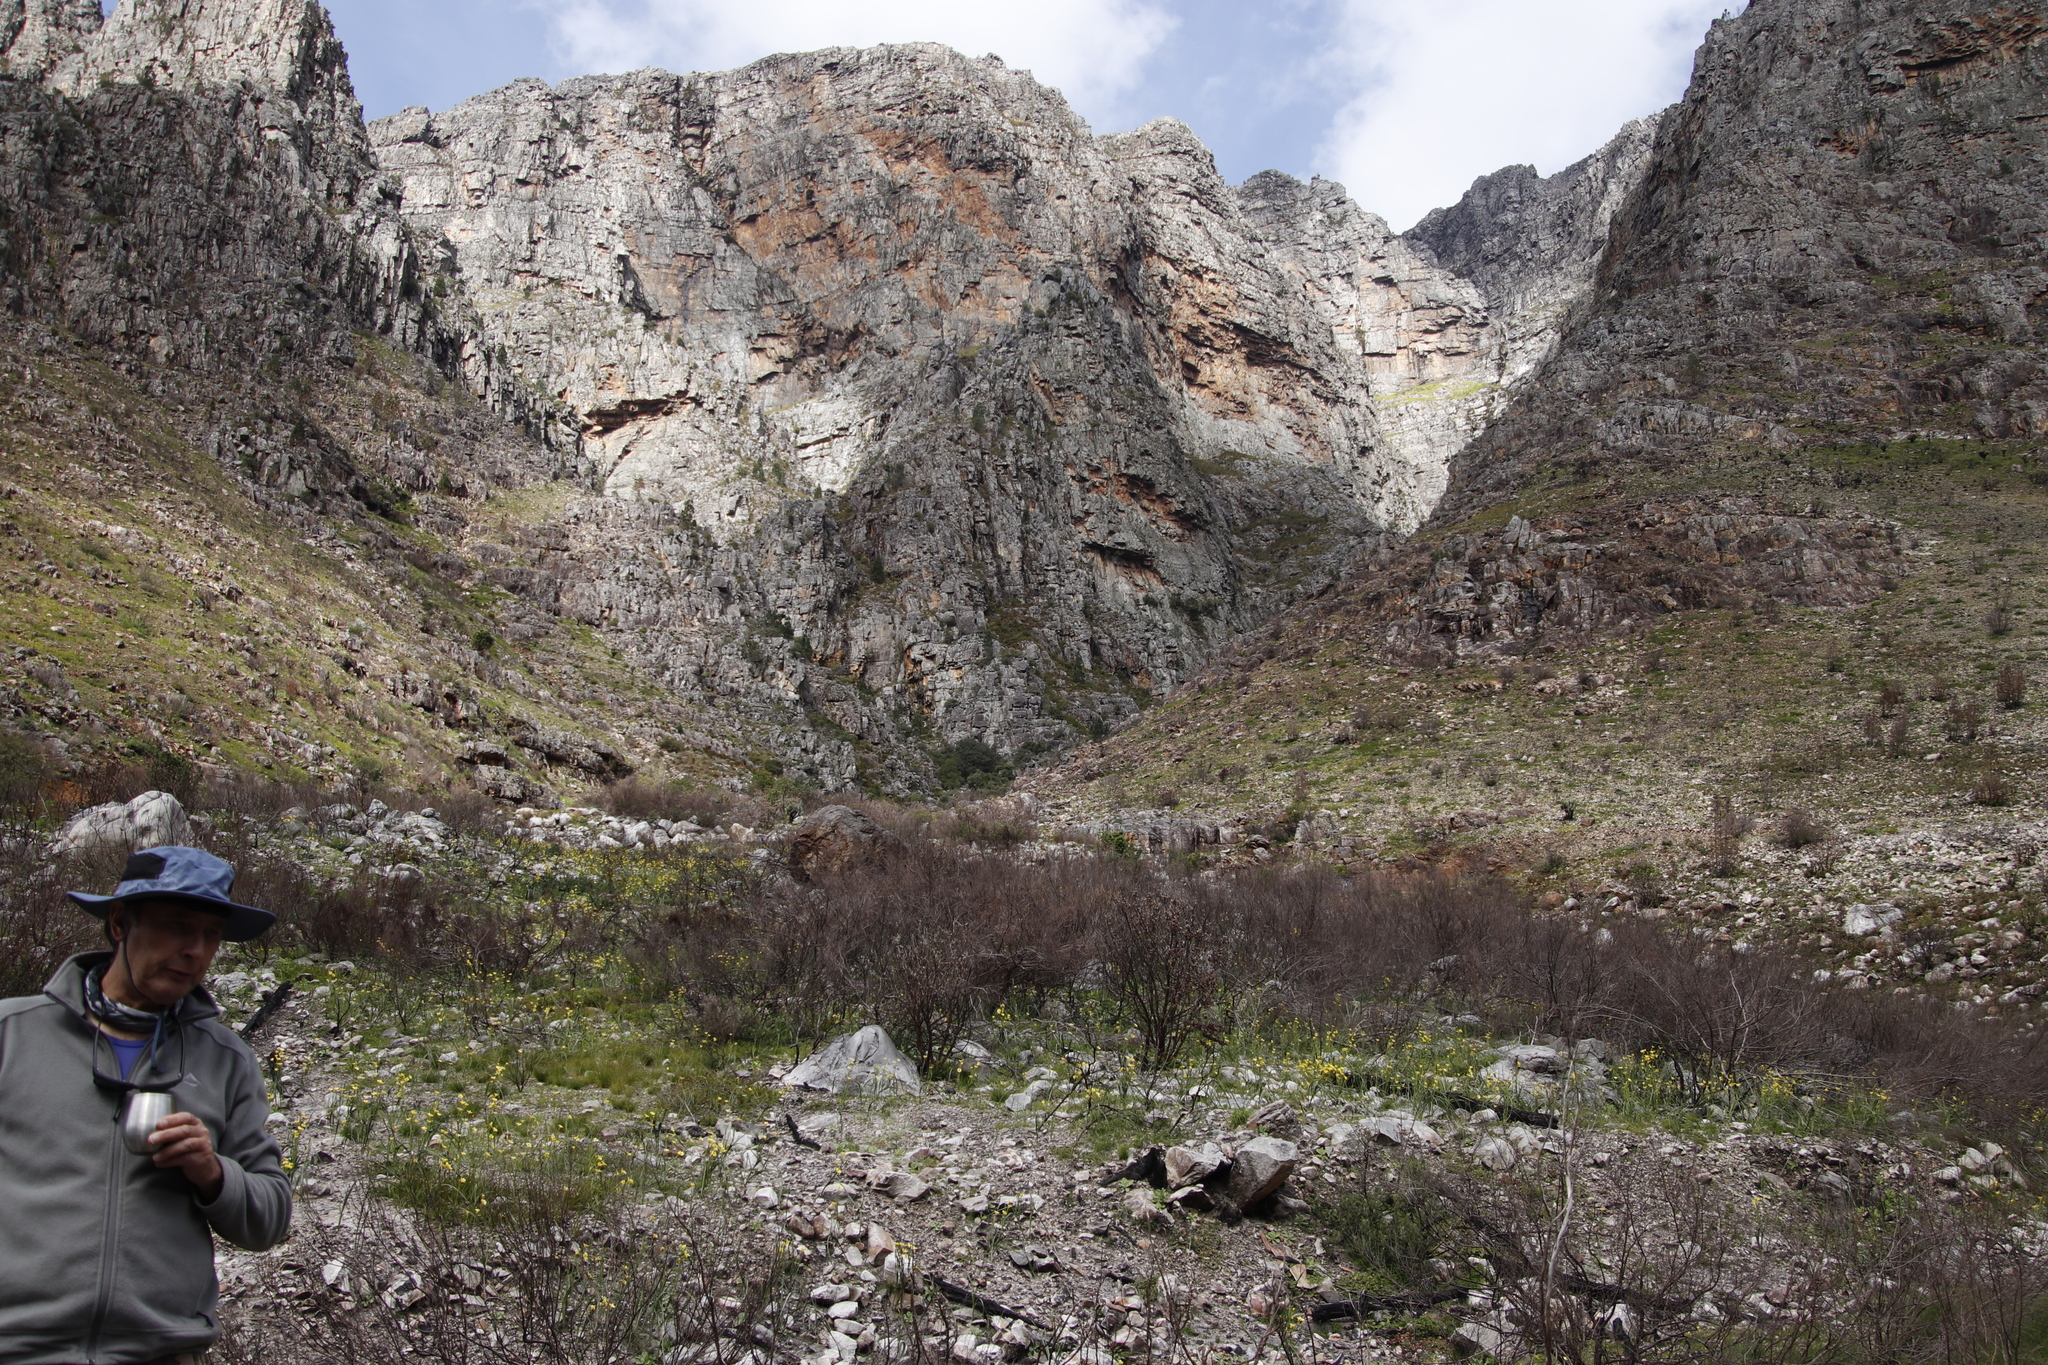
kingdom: Plantae
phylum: Tracheophyta
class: Liliopsida
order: Asparagales
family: Iridaceae
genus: Moraea
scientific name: Moraea ochroleuca
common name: Red tulp
